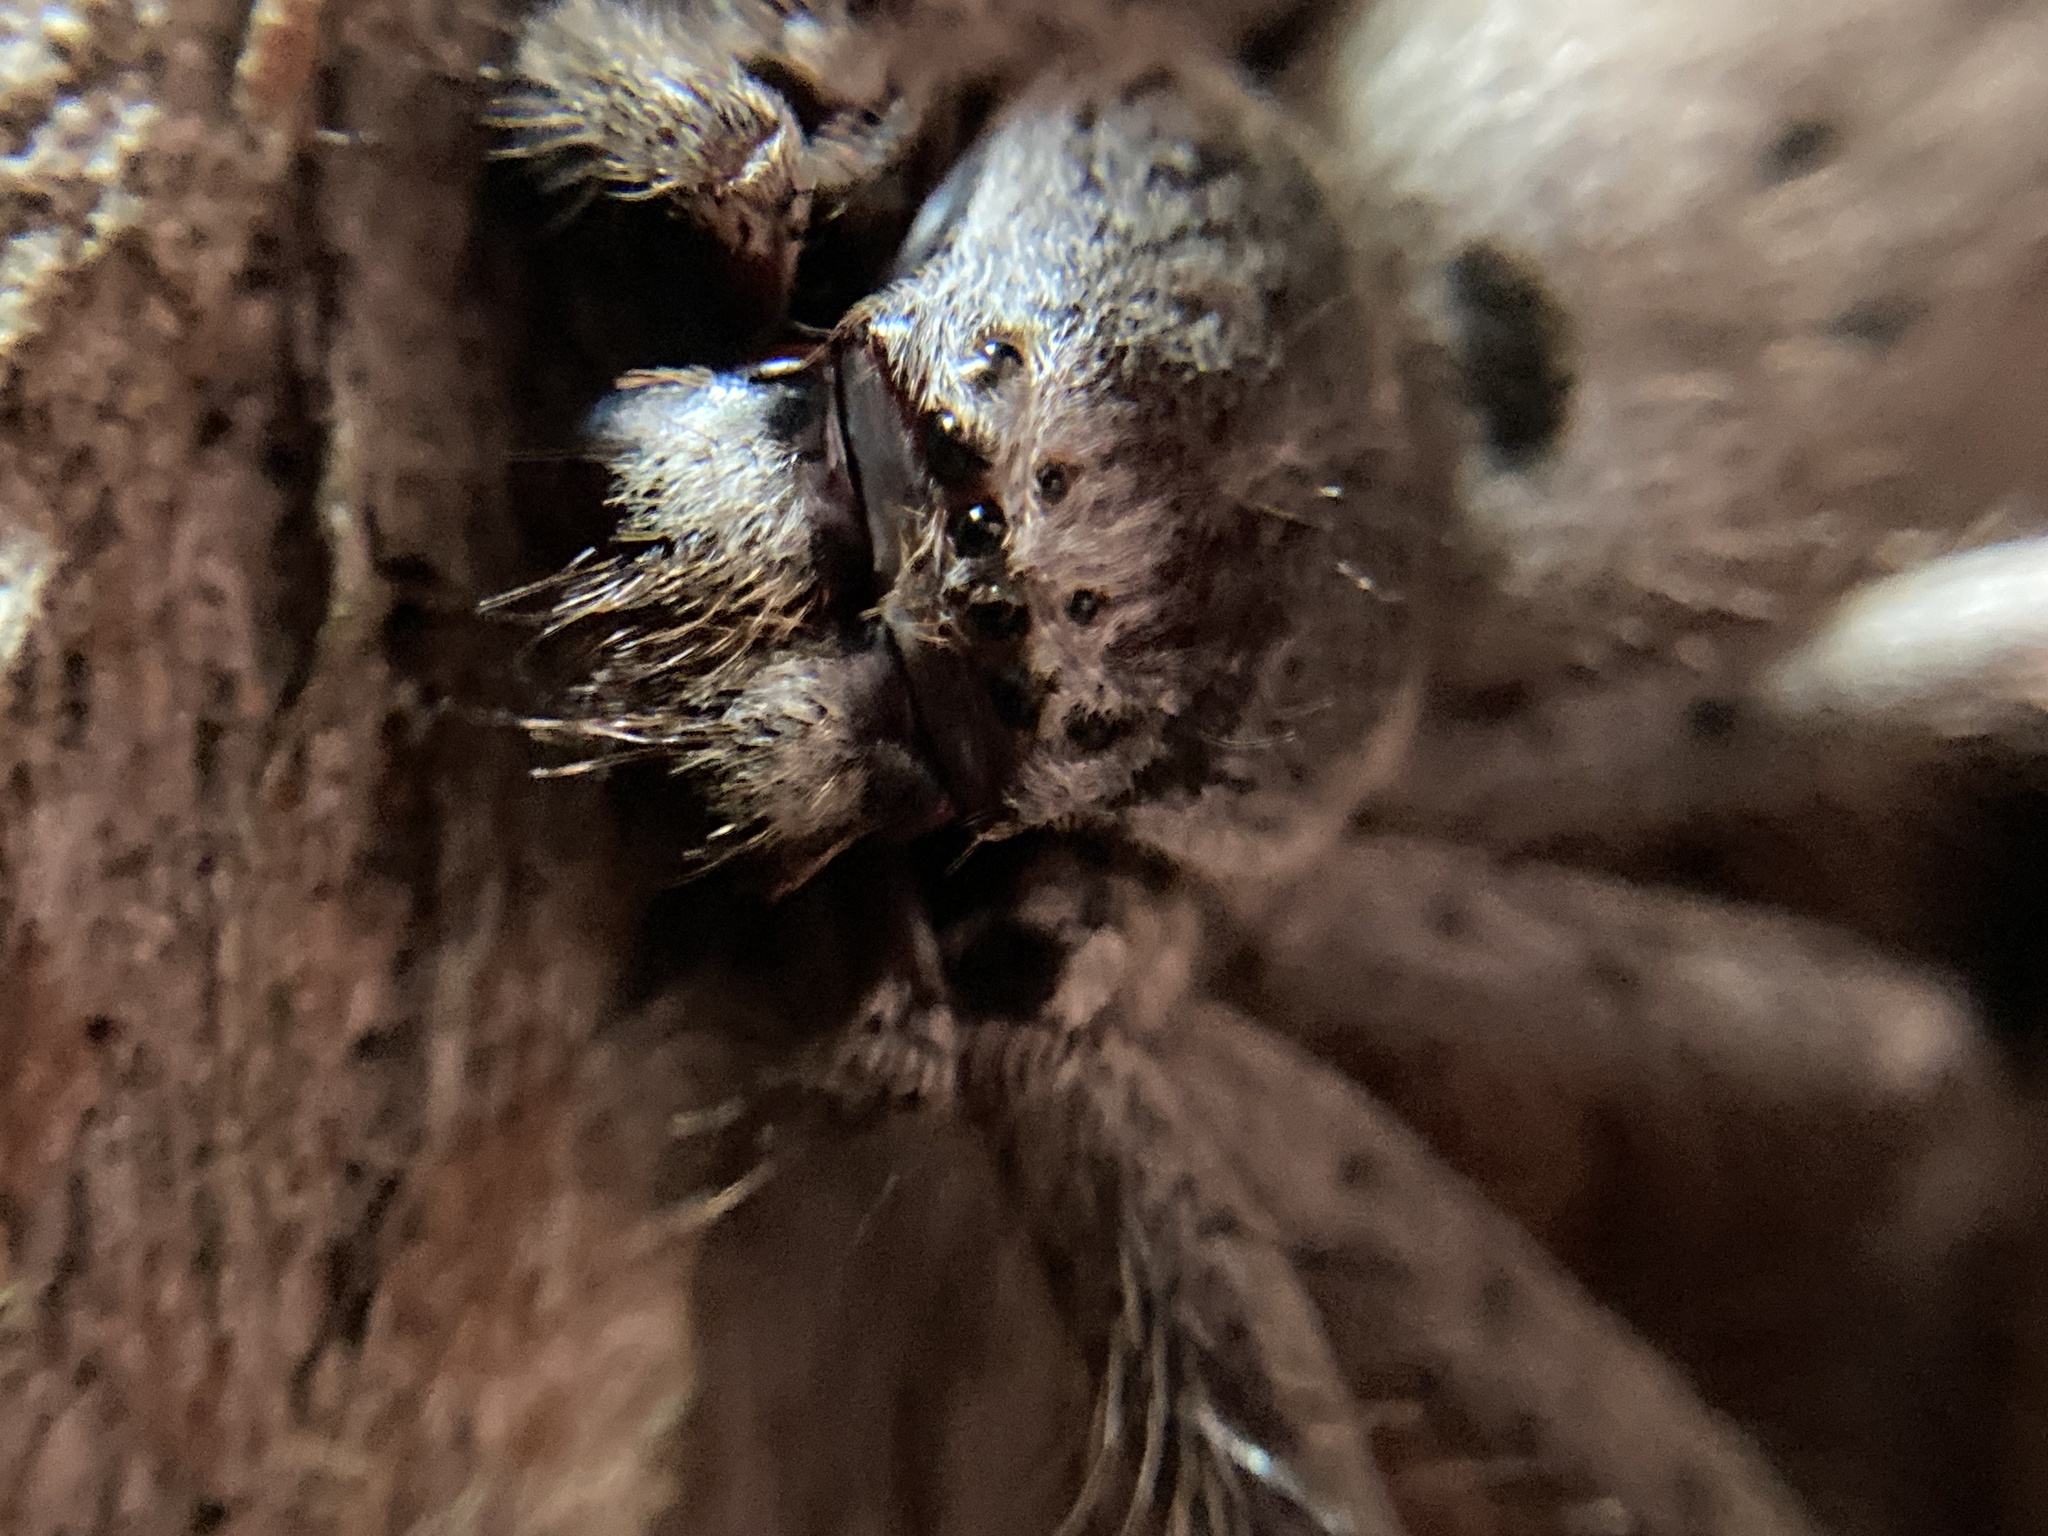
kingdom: Animalia
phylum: Arthropoda
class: Arachnida
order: Araneae
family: Sparassidae
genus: Isopeda
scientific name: Isopeda villosa
